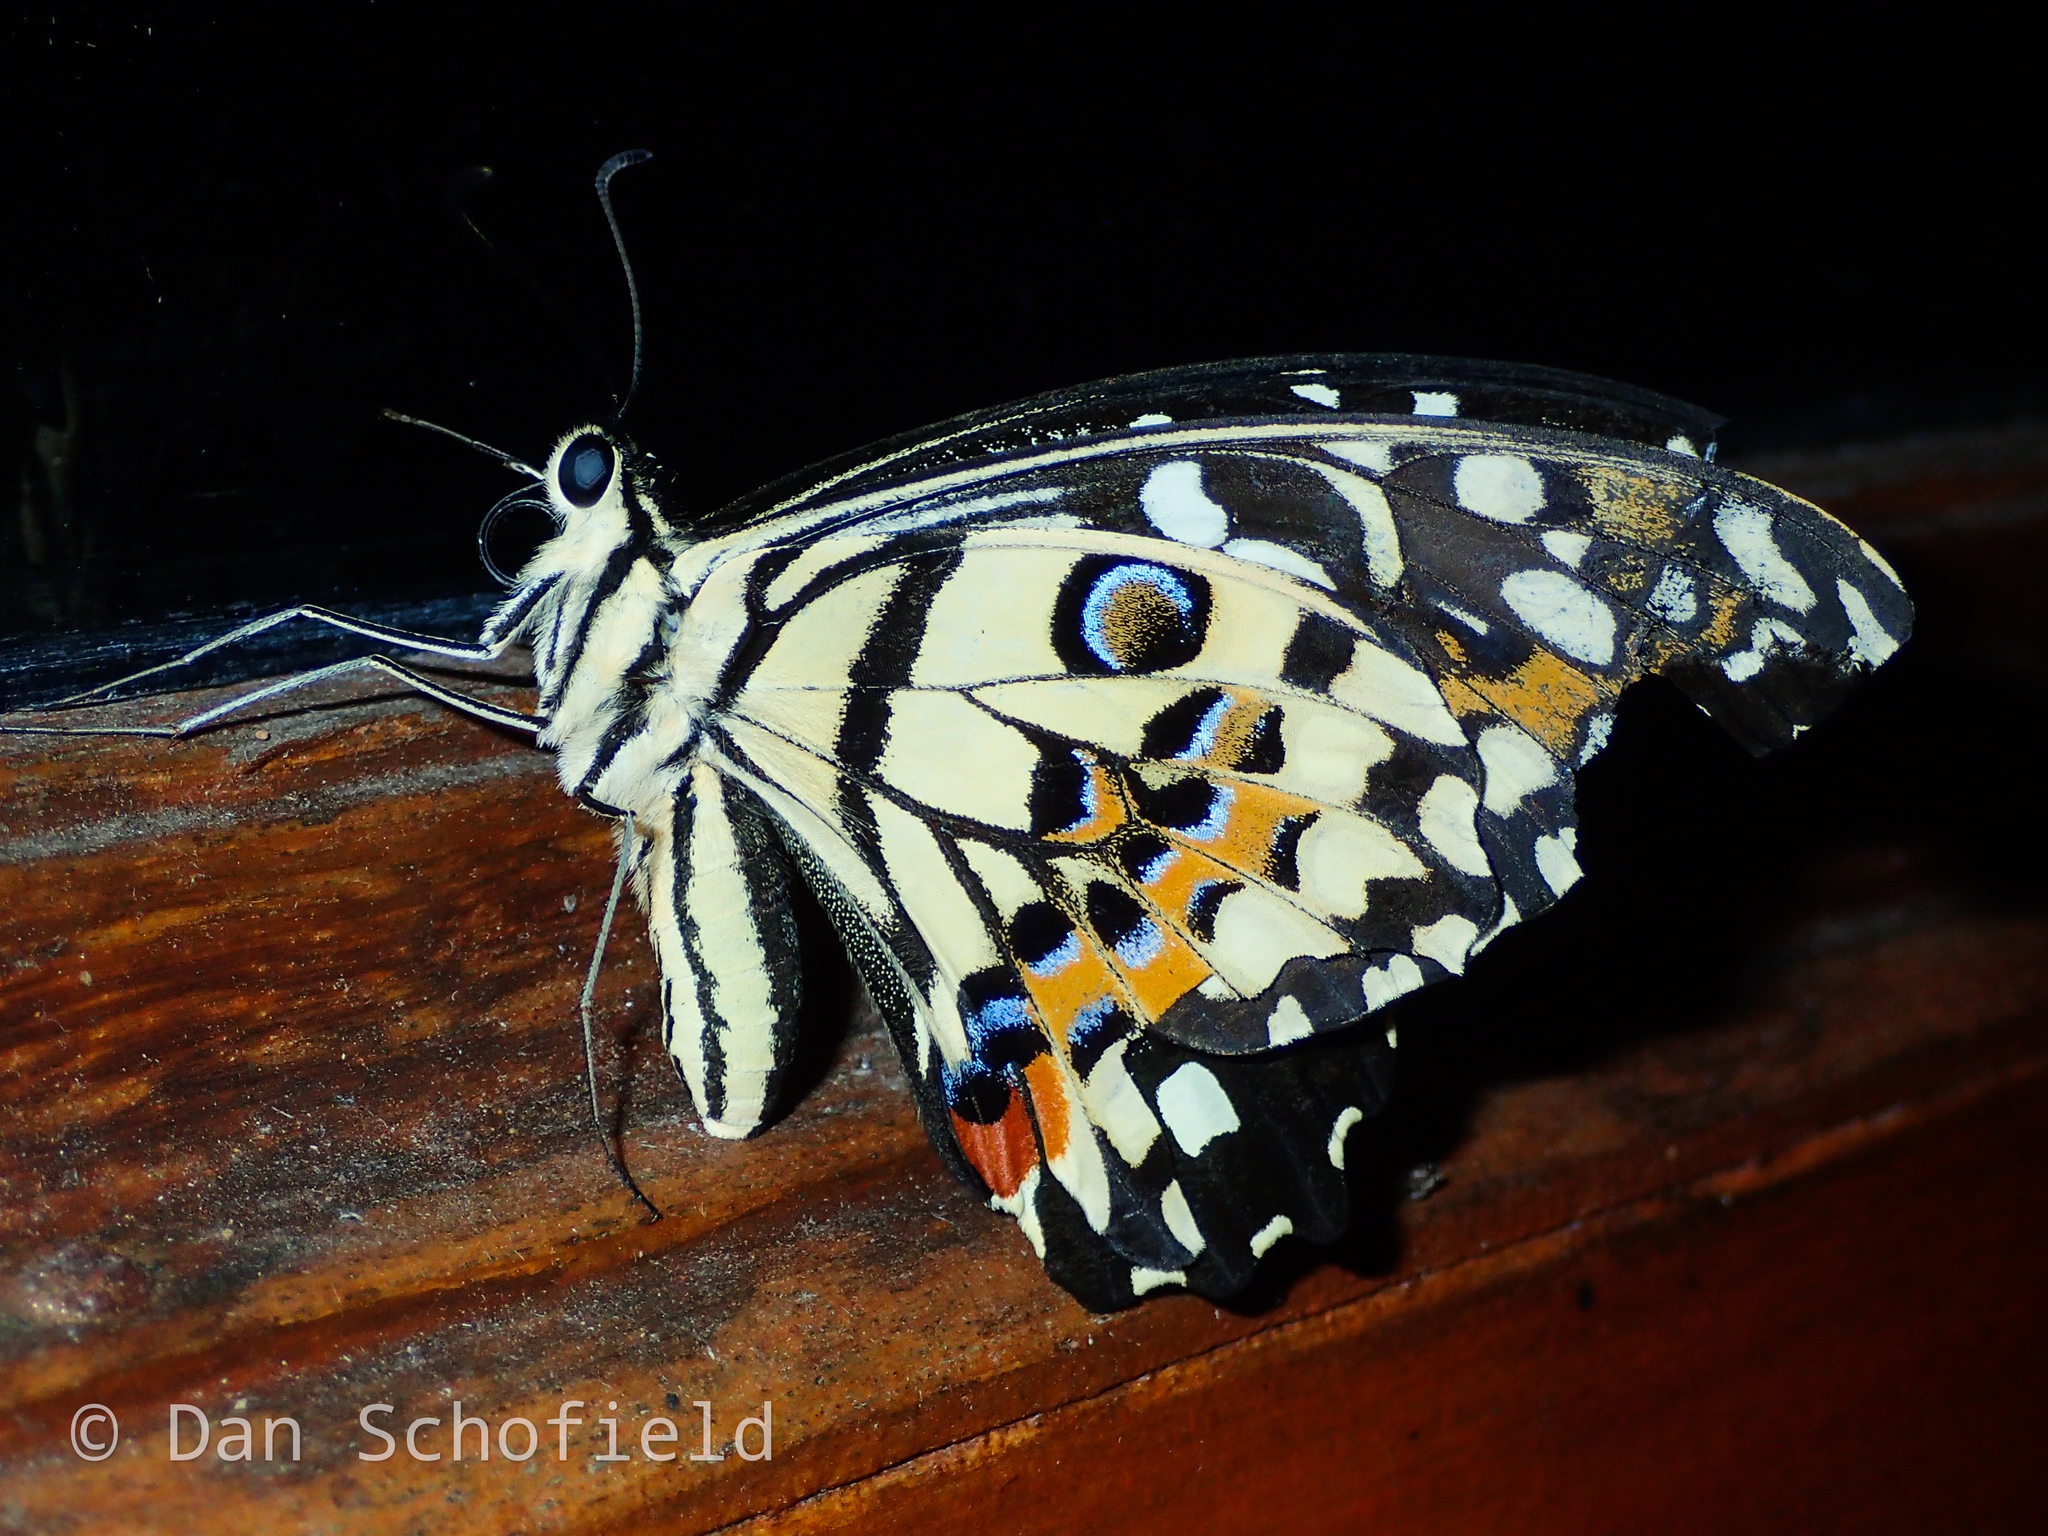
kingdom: Animalia
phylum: Arthropoda
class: Insecta
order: Lepidoptera
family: Papilionidae
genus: Papilio
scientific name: Papilio demoleus
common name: Lime butterfly
